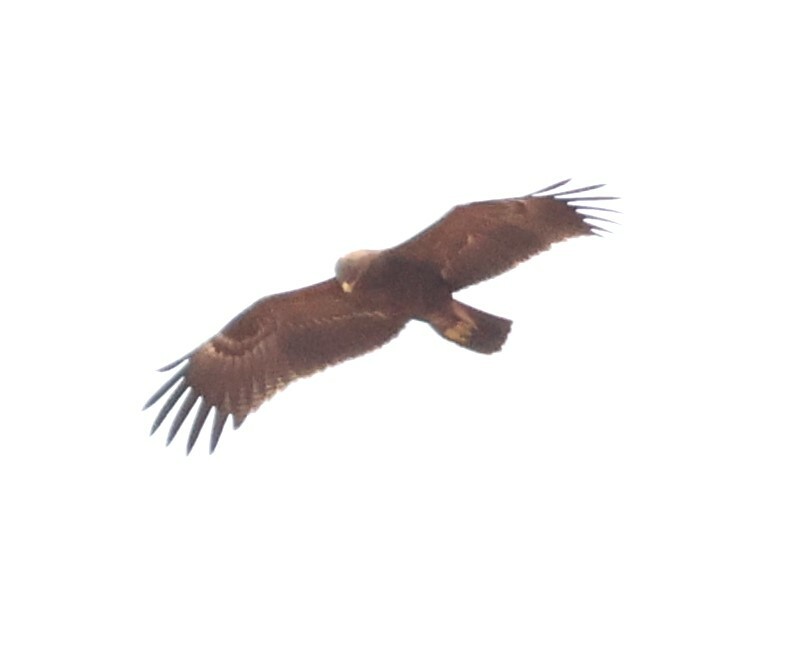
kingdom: Animalia
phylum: Chordata
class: Aves
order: Accipitriformes
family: Accipitridae
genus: Aquila
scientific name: Aquila nipalensis
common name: Steppe eagle
